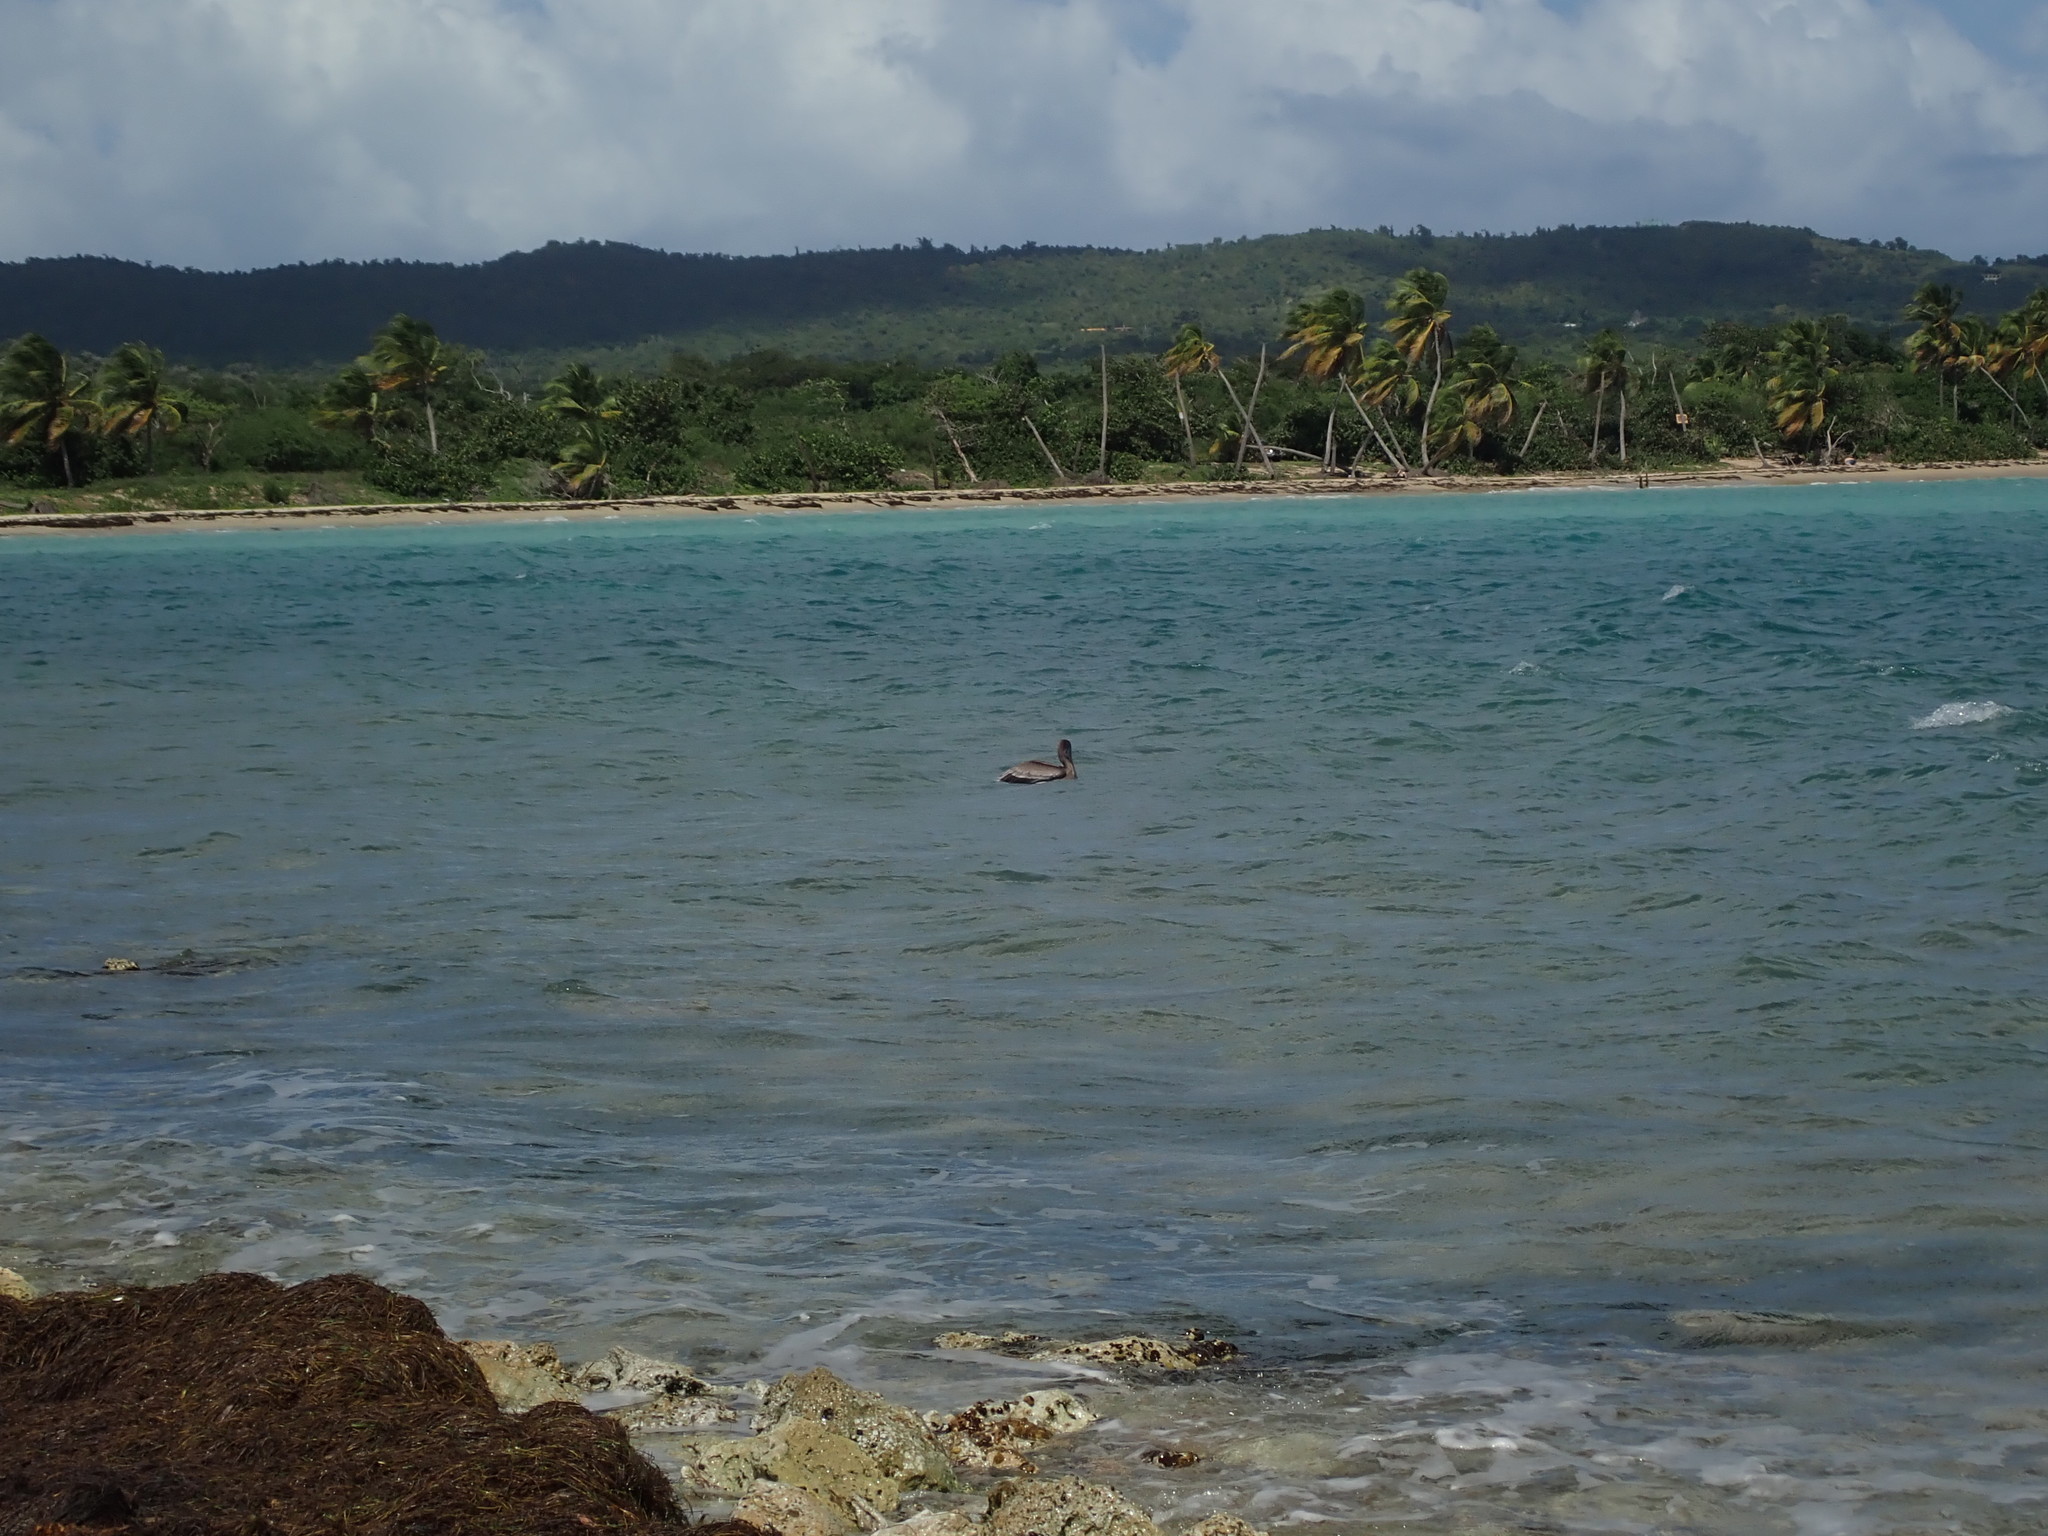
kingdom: Animalia
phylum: Chordata
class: Aves
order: Pelecaniformes
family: Pelecanidae
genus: Pelecanus
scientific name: Pelecanus occidentalis
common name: Brown pelican
